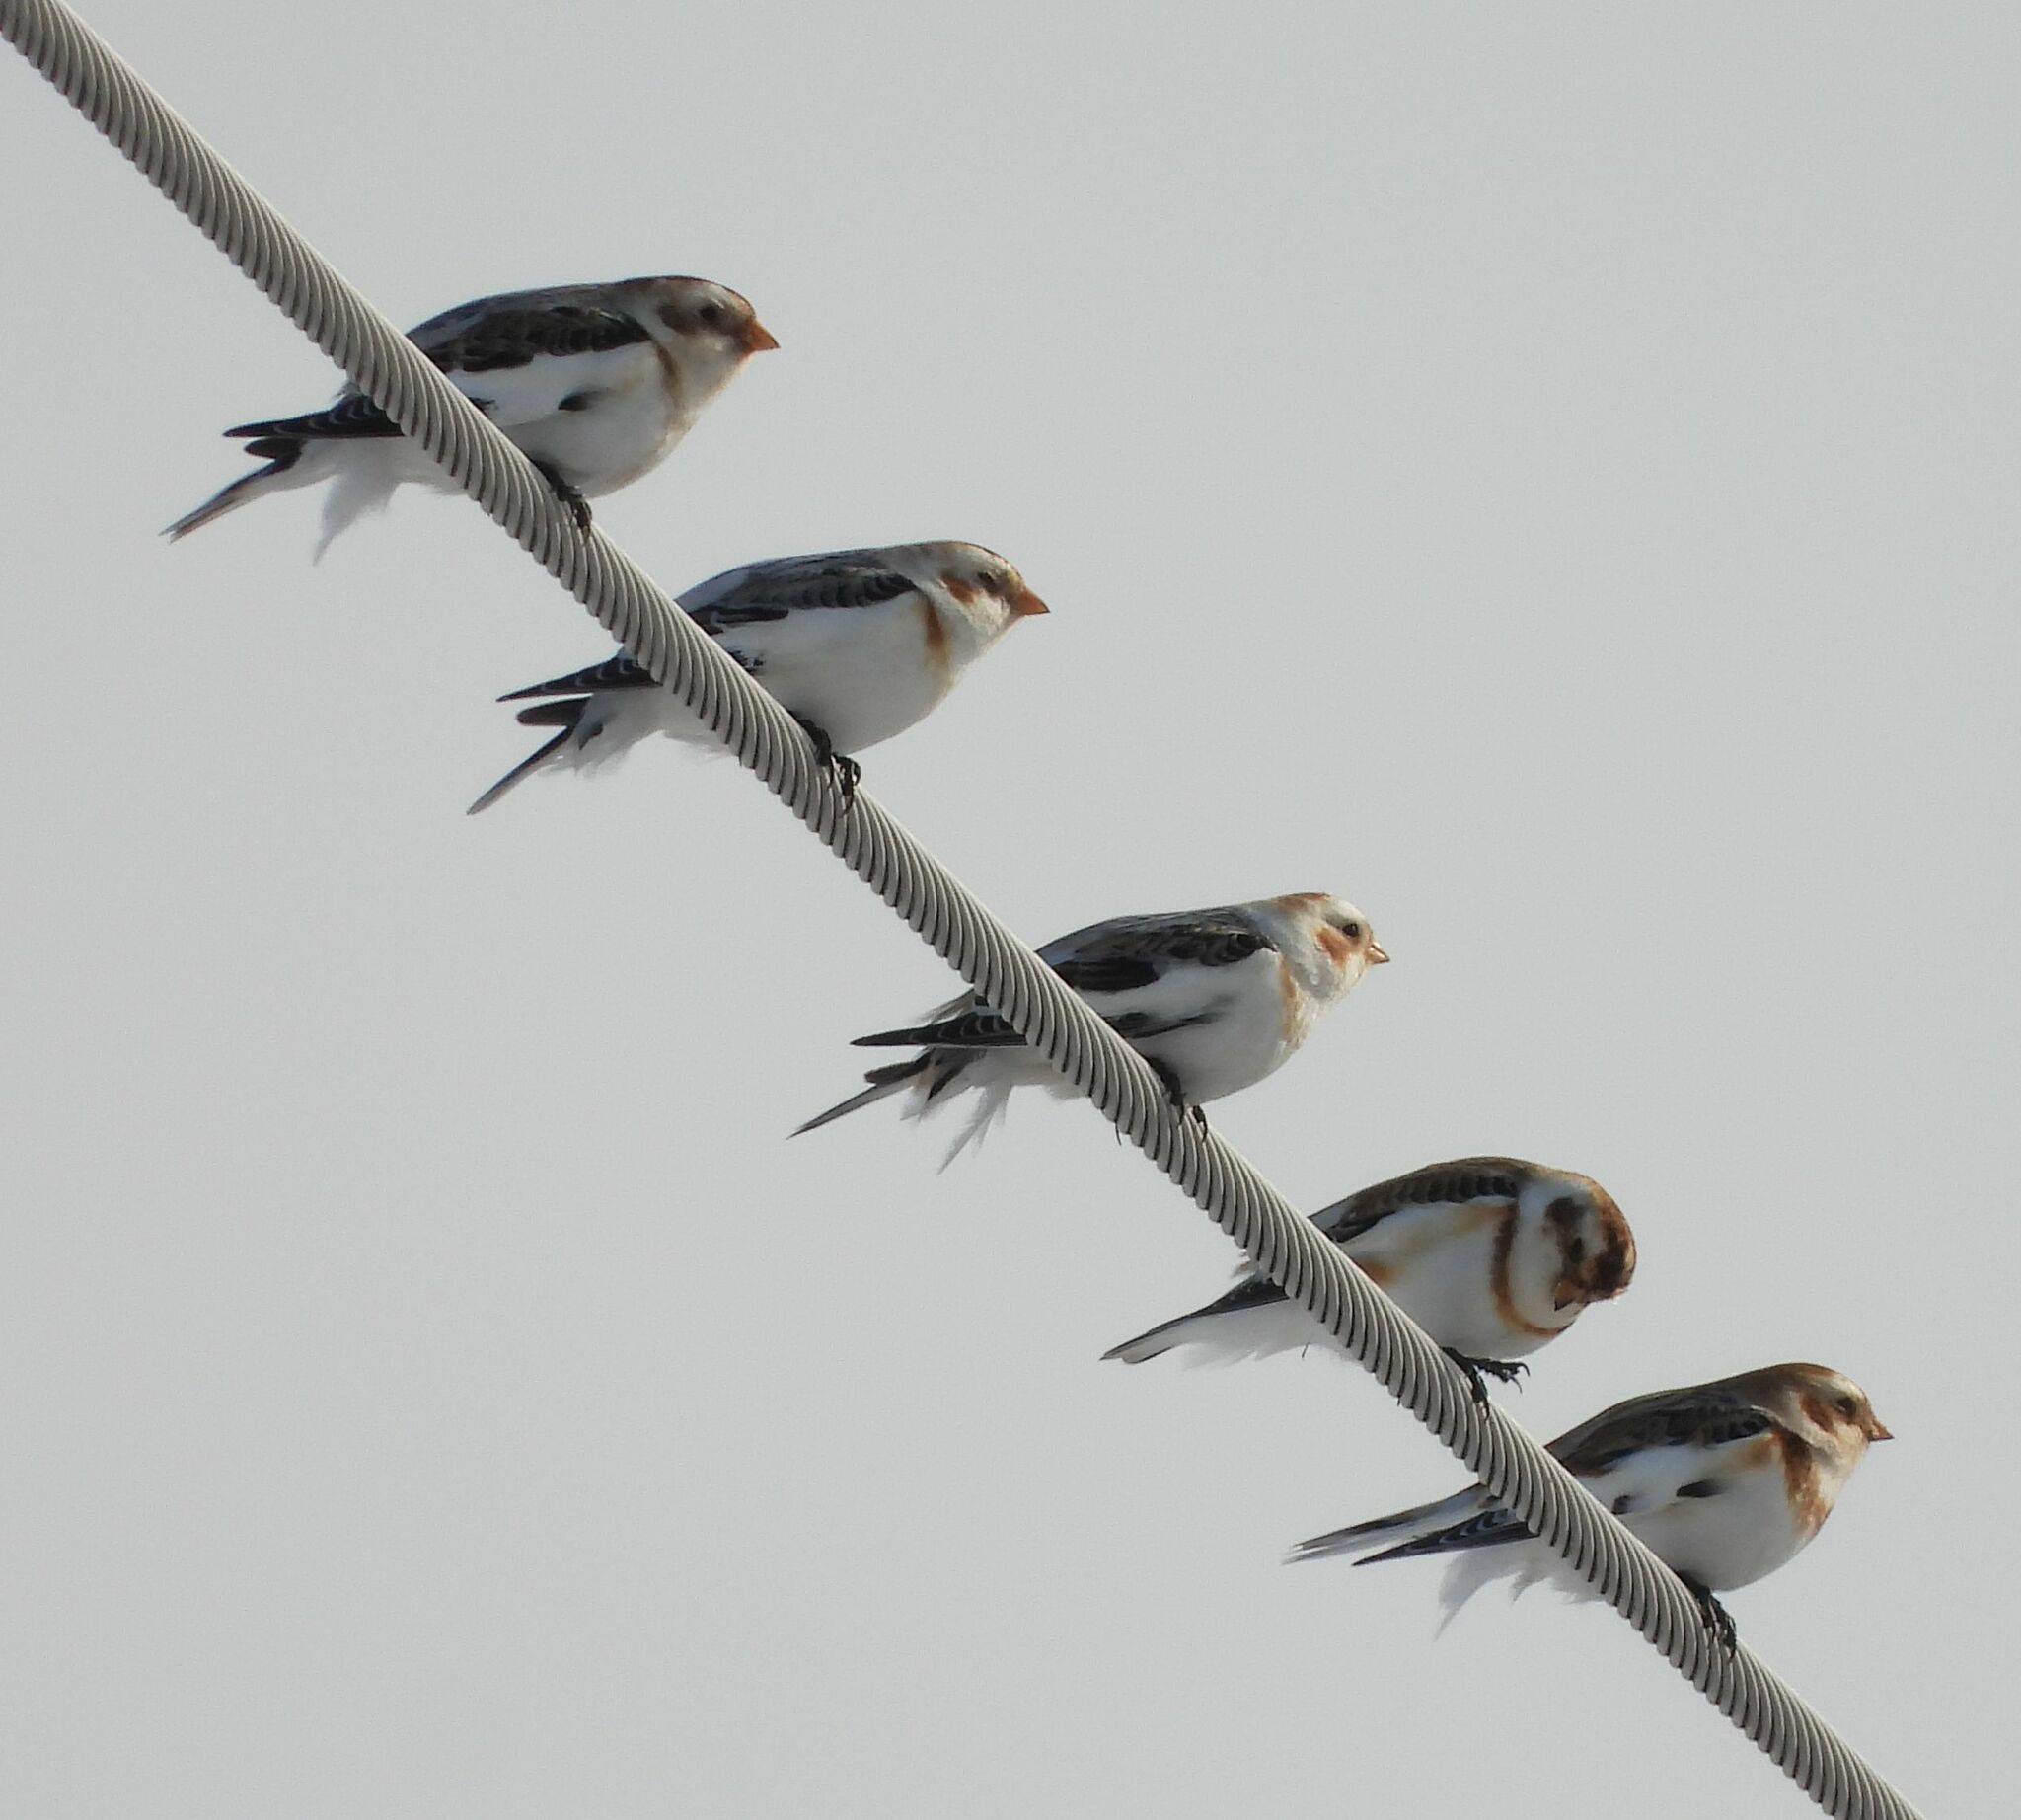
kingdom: Animalia
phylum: Chordata
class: Aves
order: Passeriformes
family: Calcariidae
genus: Plectrophenax
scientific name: Plectrophenax nivalis
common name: Snow bunting
